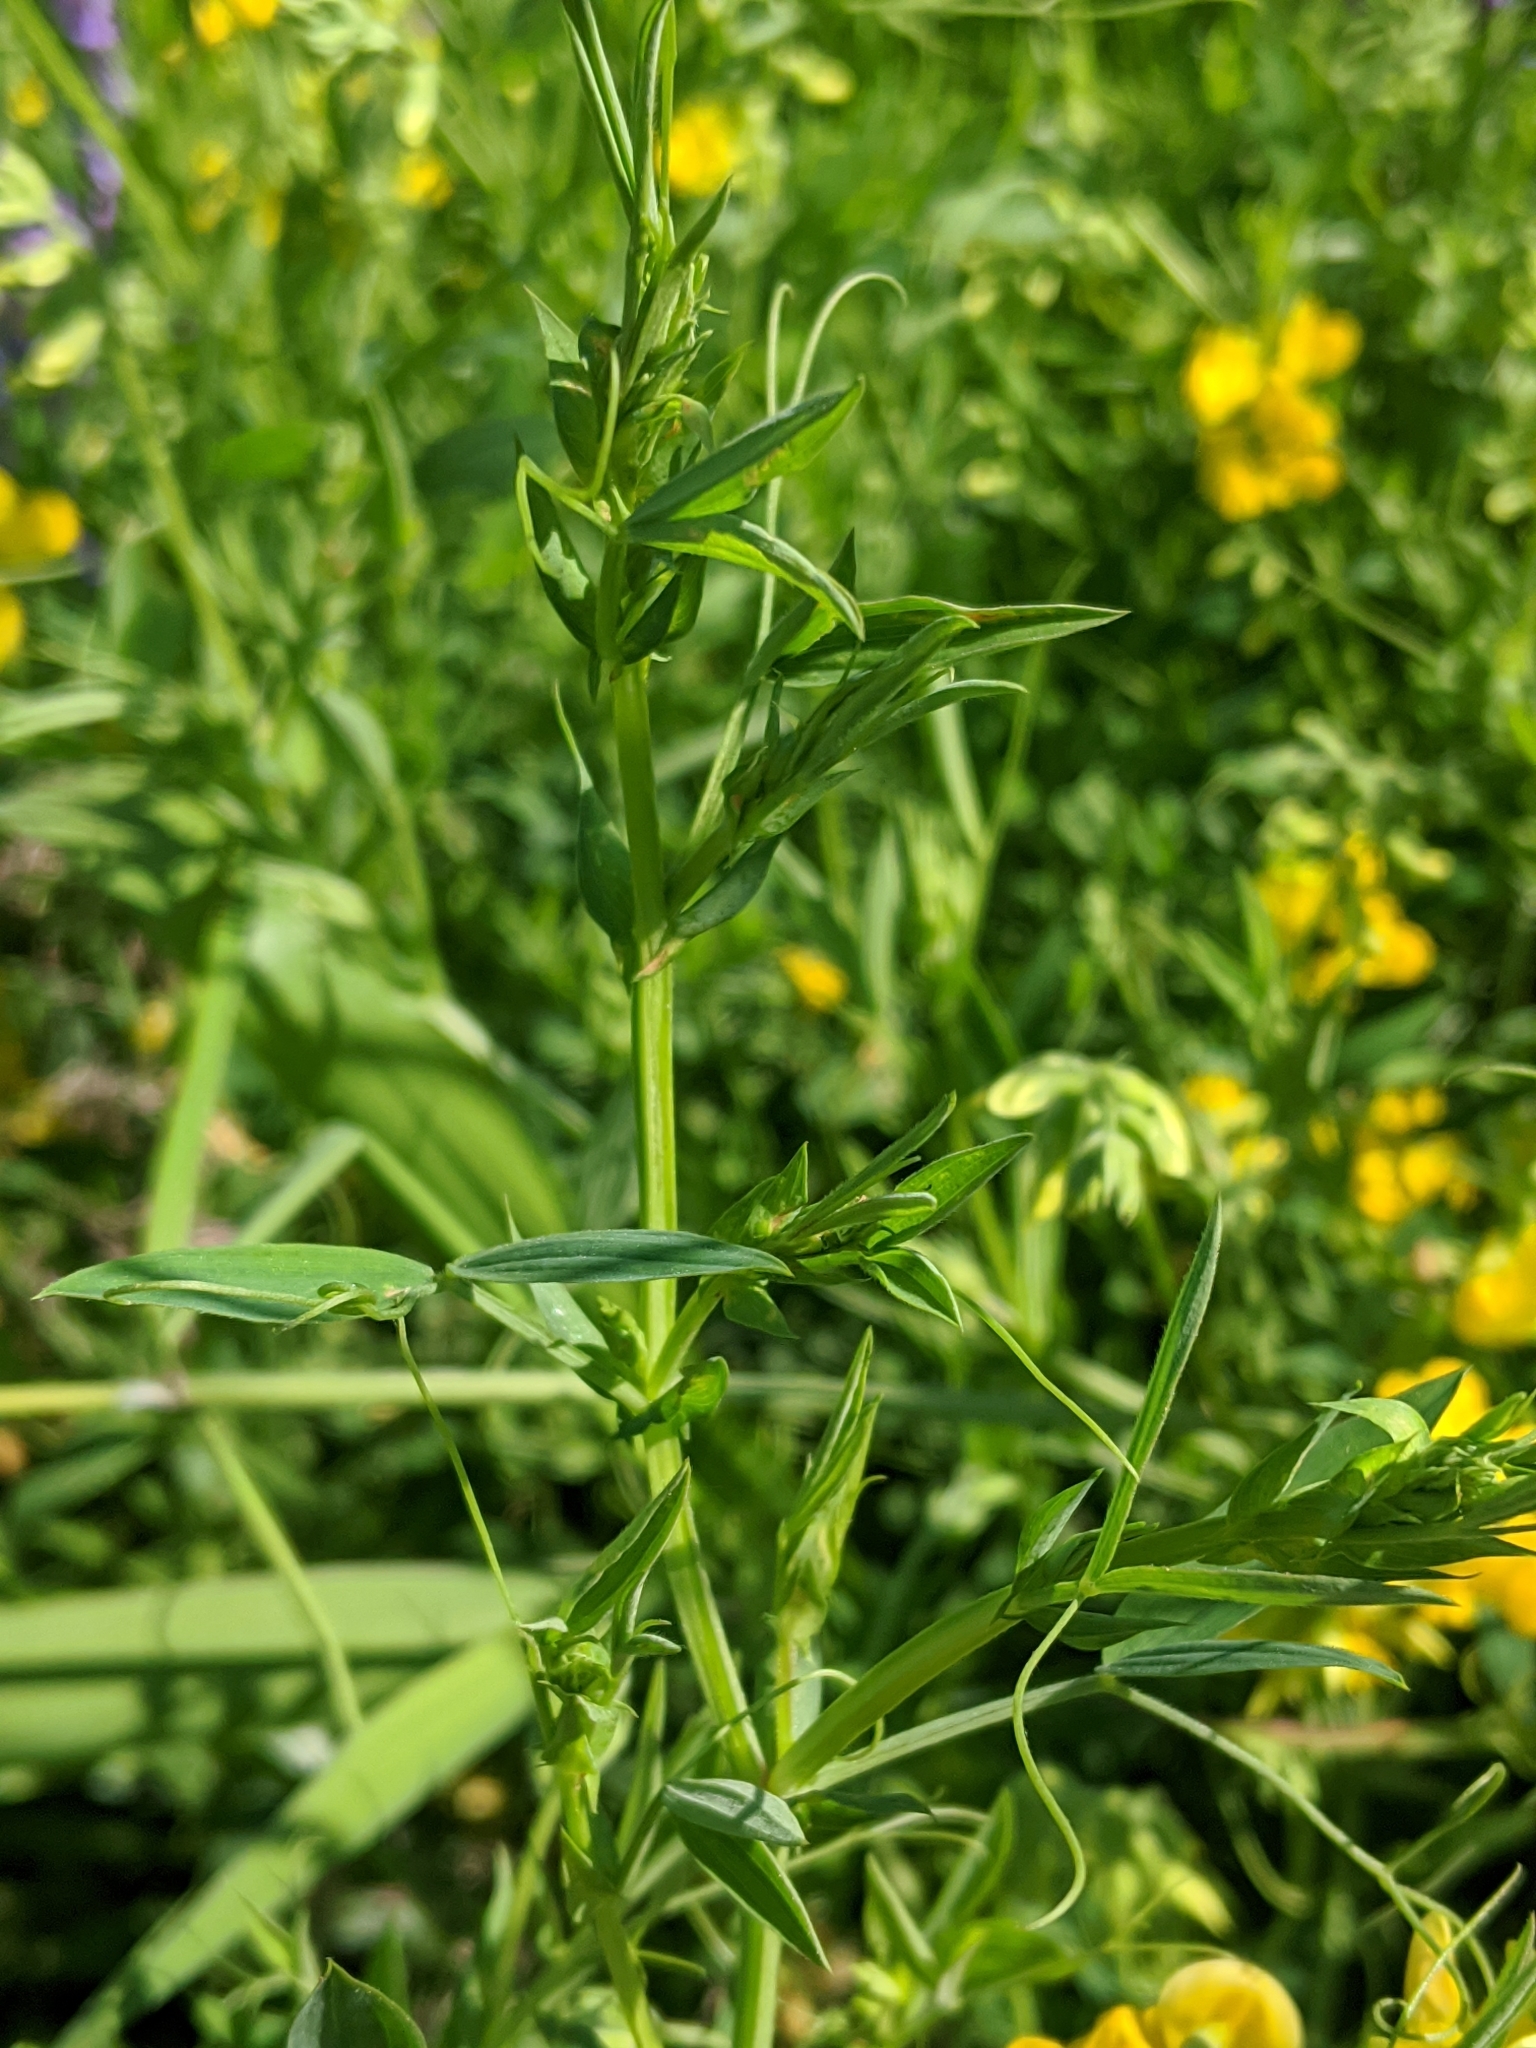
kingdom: Plantae
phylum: Tracheophyta
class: Magnoliopsida
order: Fabales
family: Fabaceae
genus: Lathyrus
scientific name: Lathyrus pratensis
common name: Meadow vetchling
